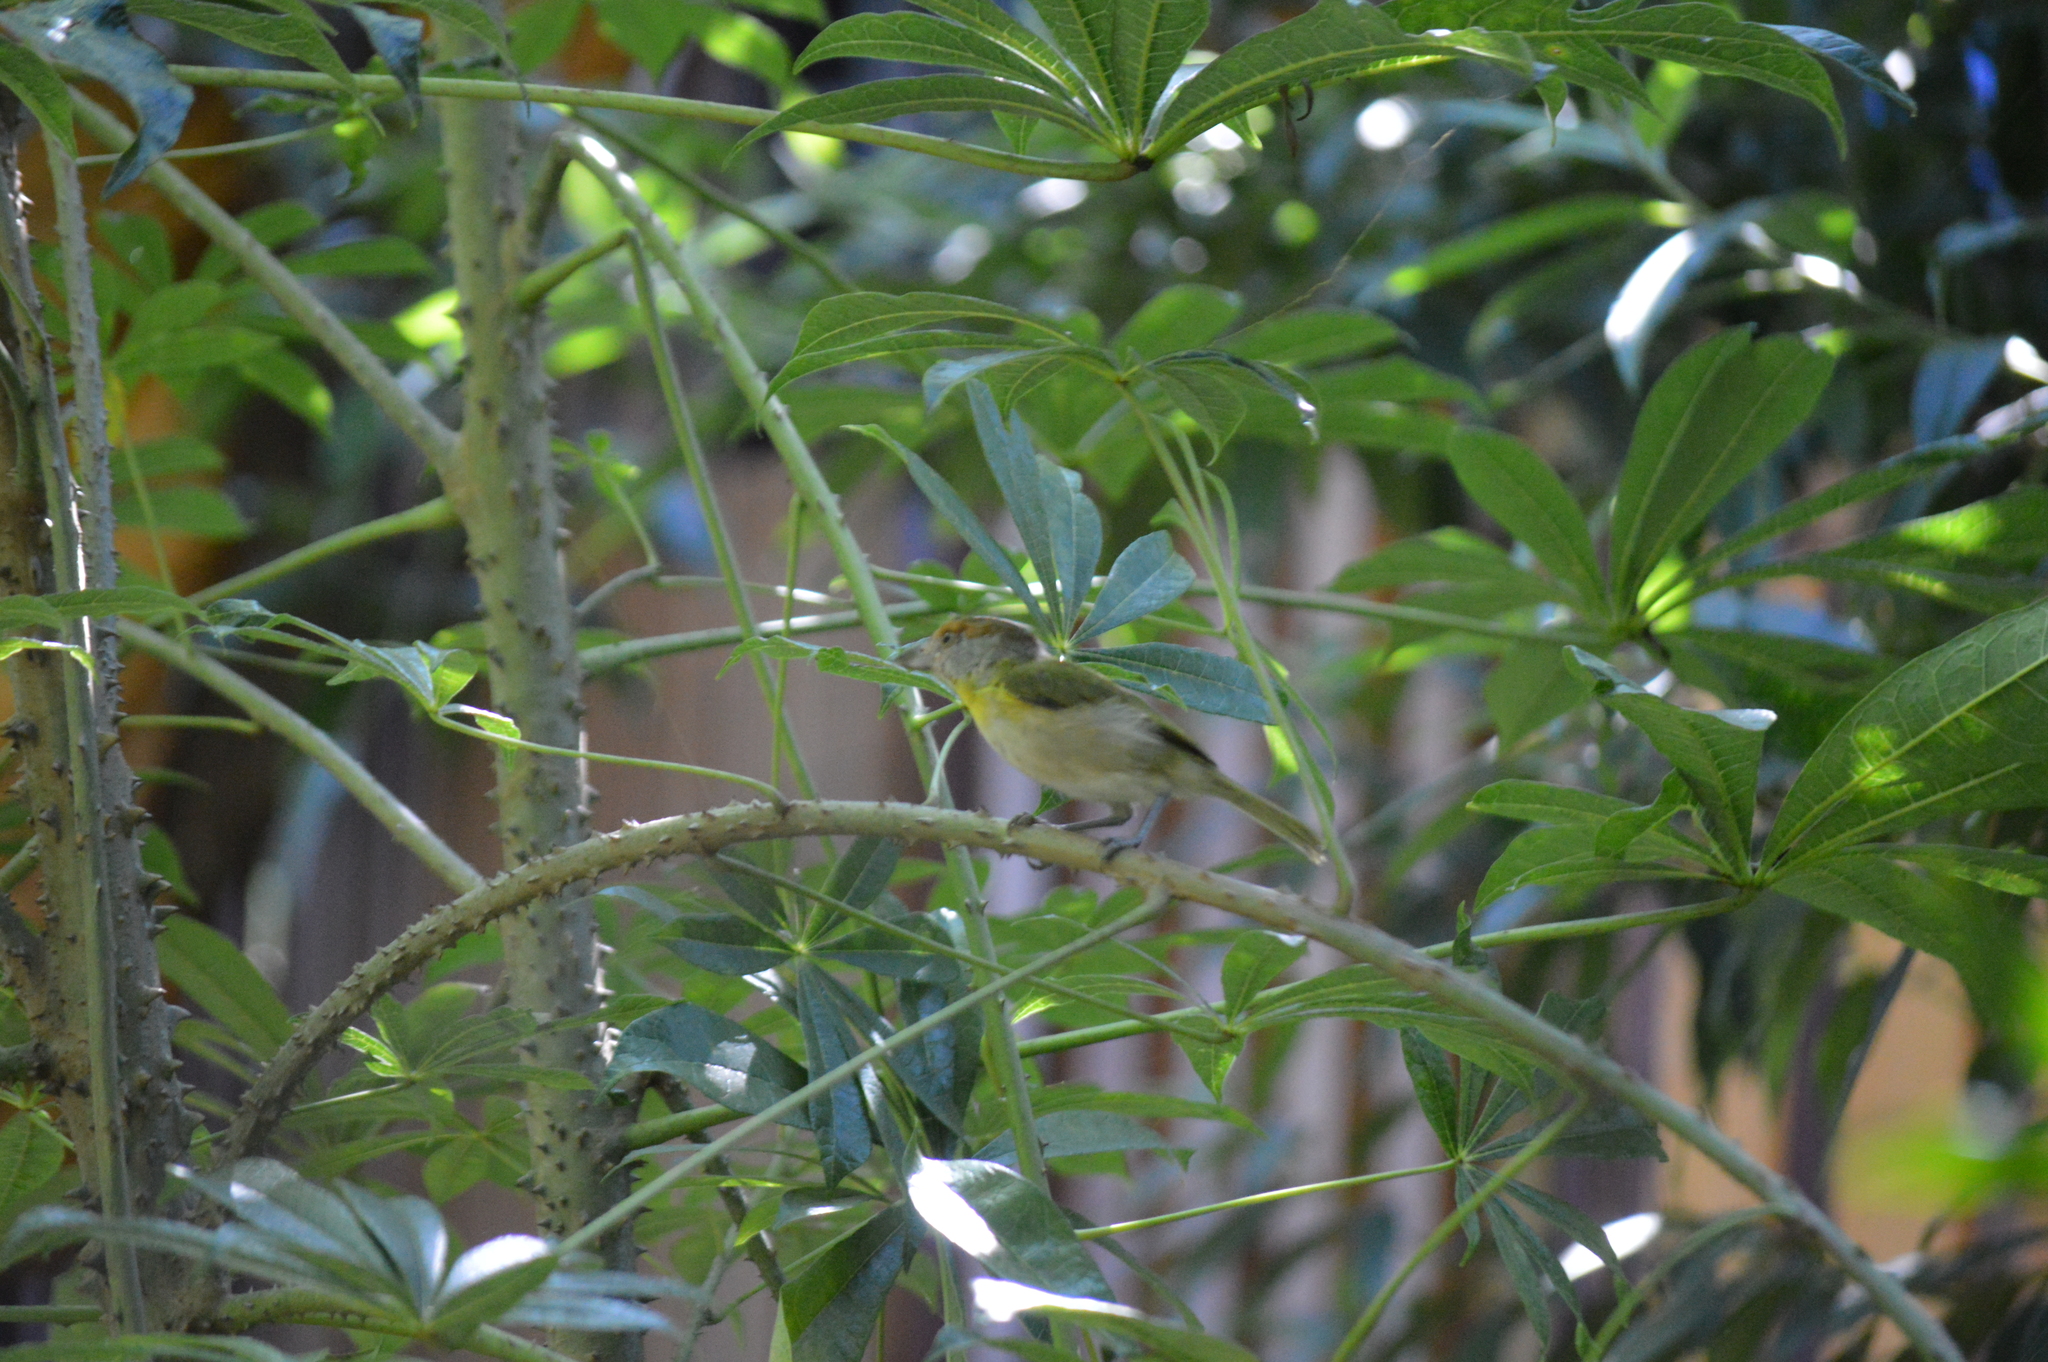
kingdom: Animalia
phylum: Chordata
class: Aves
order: Passeriformes
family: Vireonidae
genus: Cyclarhis
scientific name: Cyclarhis gujanensis
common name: Rufous-browed peppershrike
